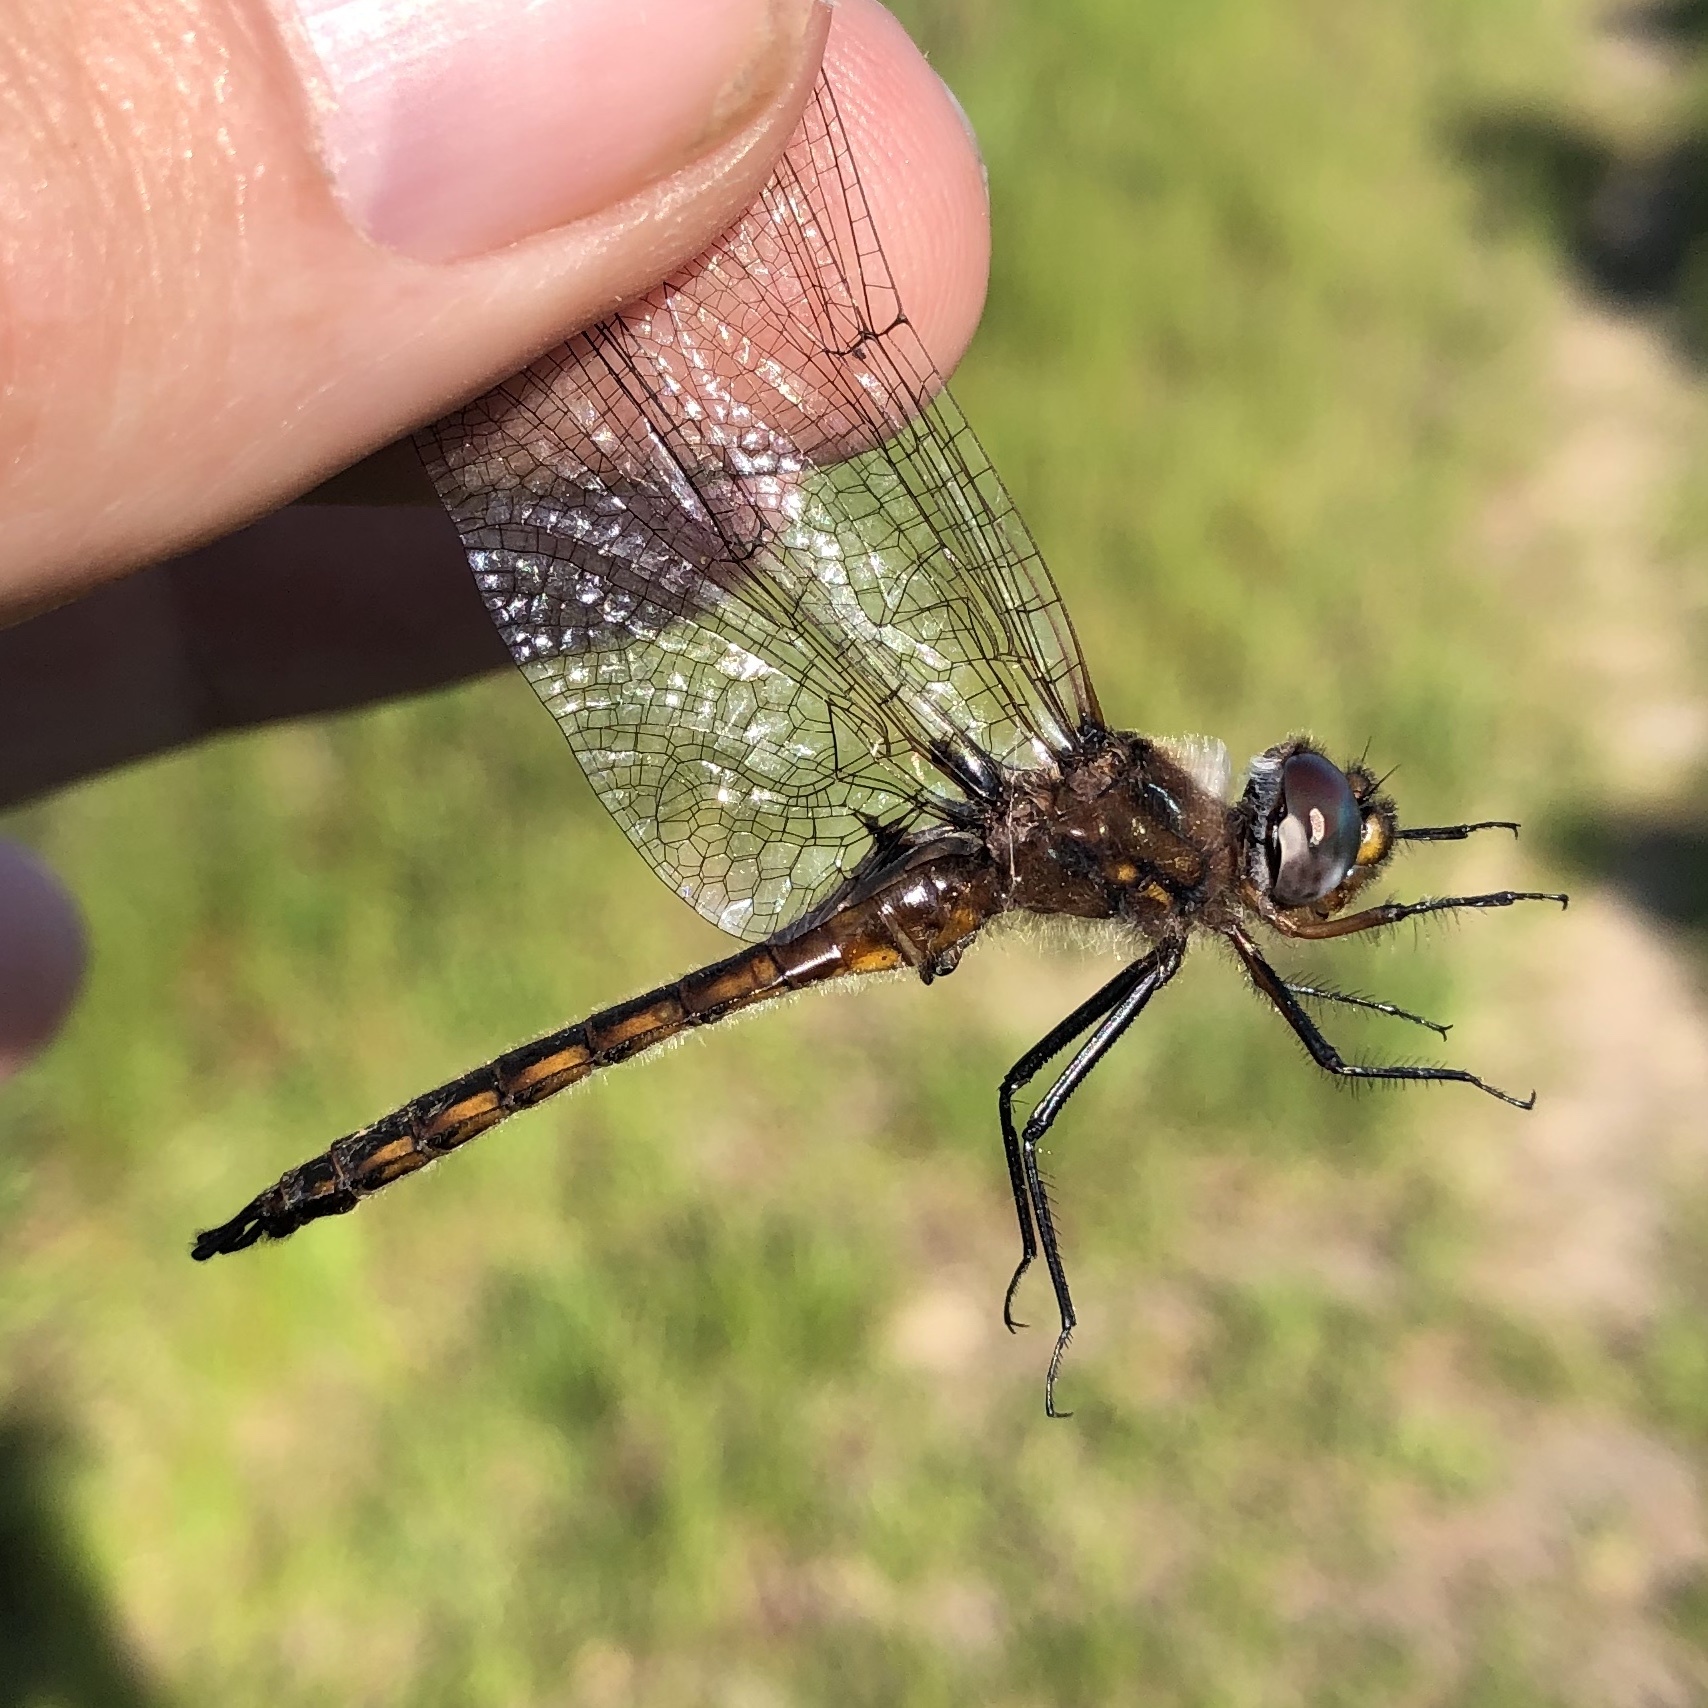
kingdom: Animalia
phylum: Arthropoda
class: Insecta
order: Odonata
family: Corduliidae
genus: Epitheca
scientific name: Epitheca cynosura
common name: Common baskettail
